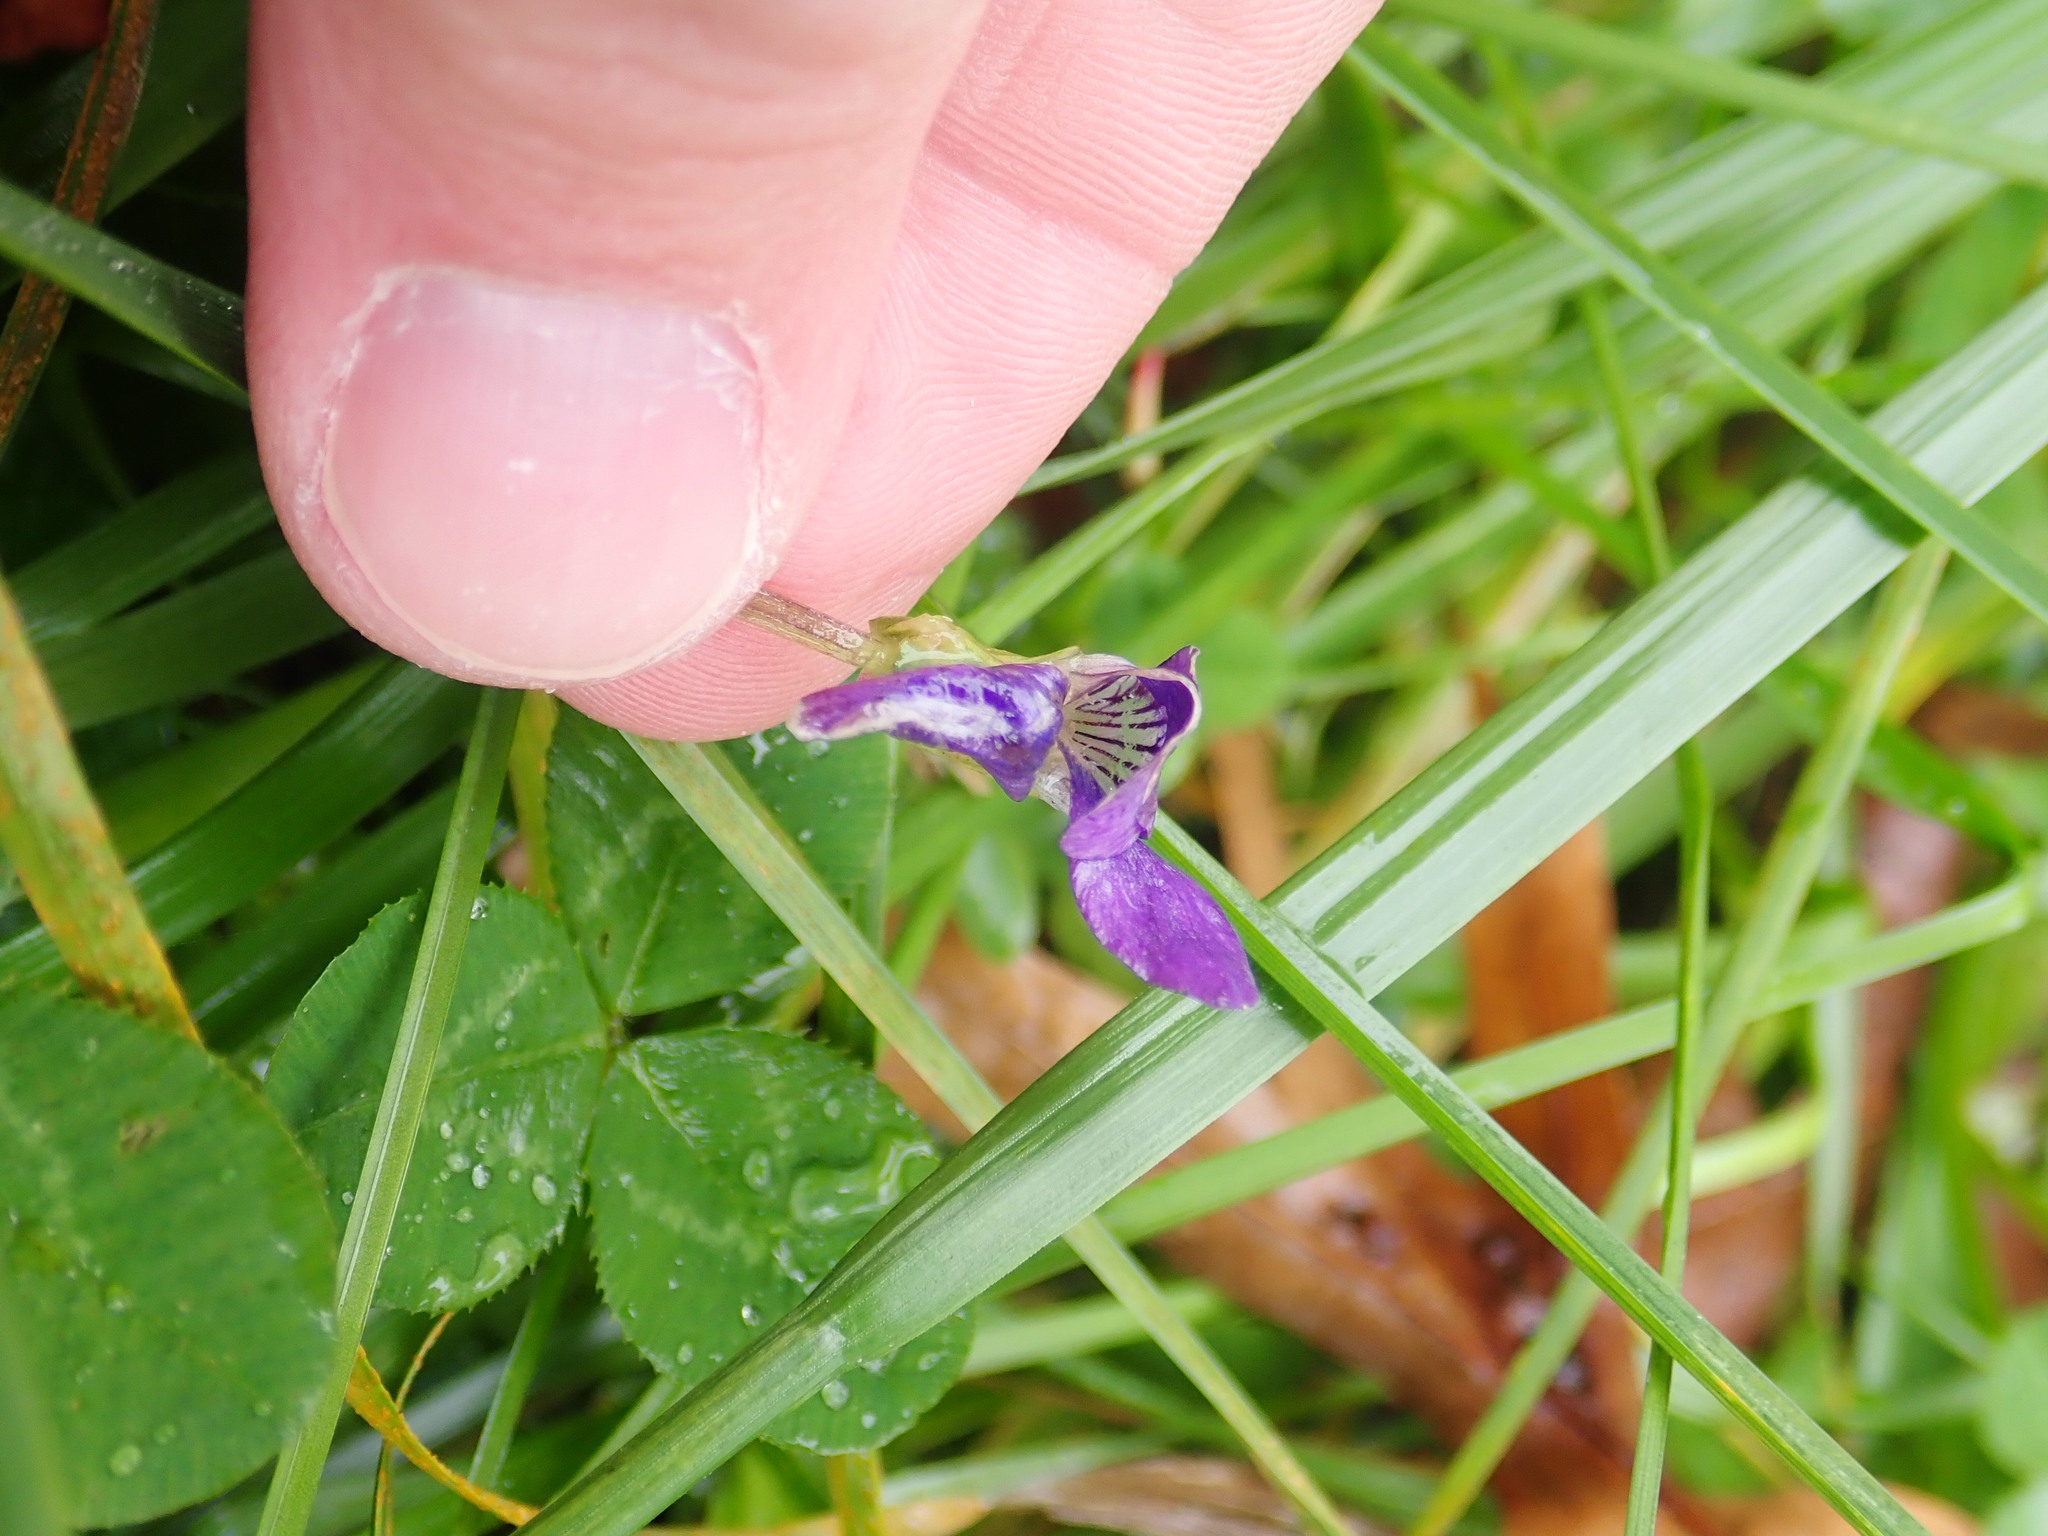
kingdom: Plantae
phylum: Tracheophyta
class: Magnoliopsida
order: Malpighiales
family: Violaceae
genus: Viola
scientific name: Viola sororia
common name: Dooryard violet
